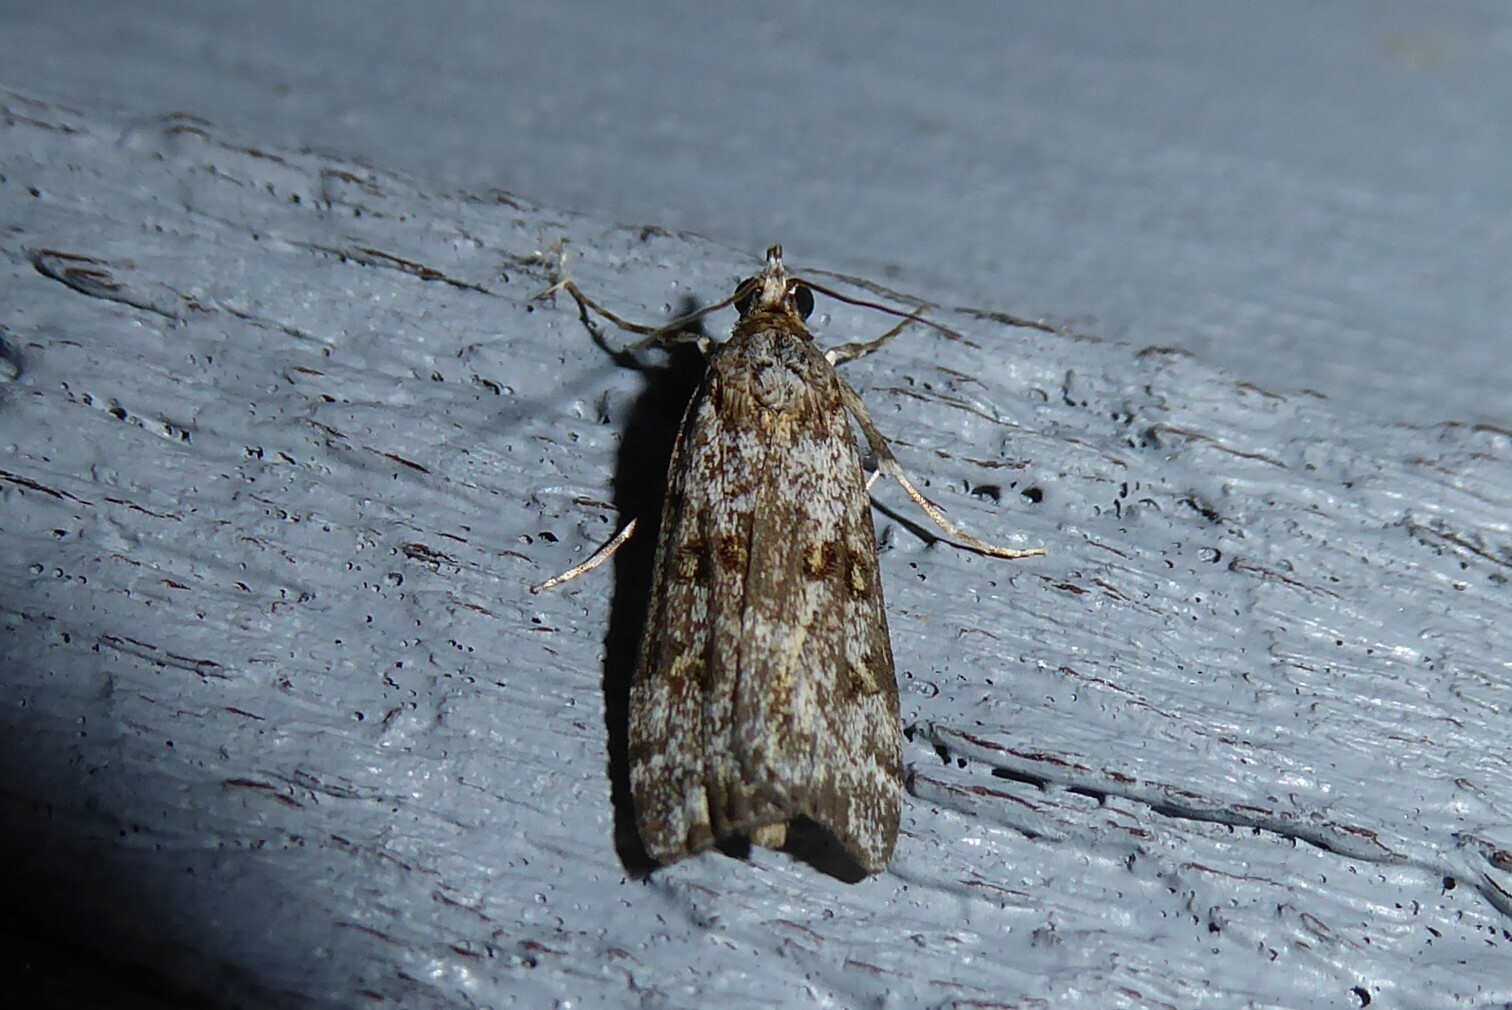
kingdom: Animalia
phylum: Arthropoda
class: Insecta
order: Lepidoptera
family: Crambidae
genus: Scoparia
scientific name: Scoparia tetracycla
